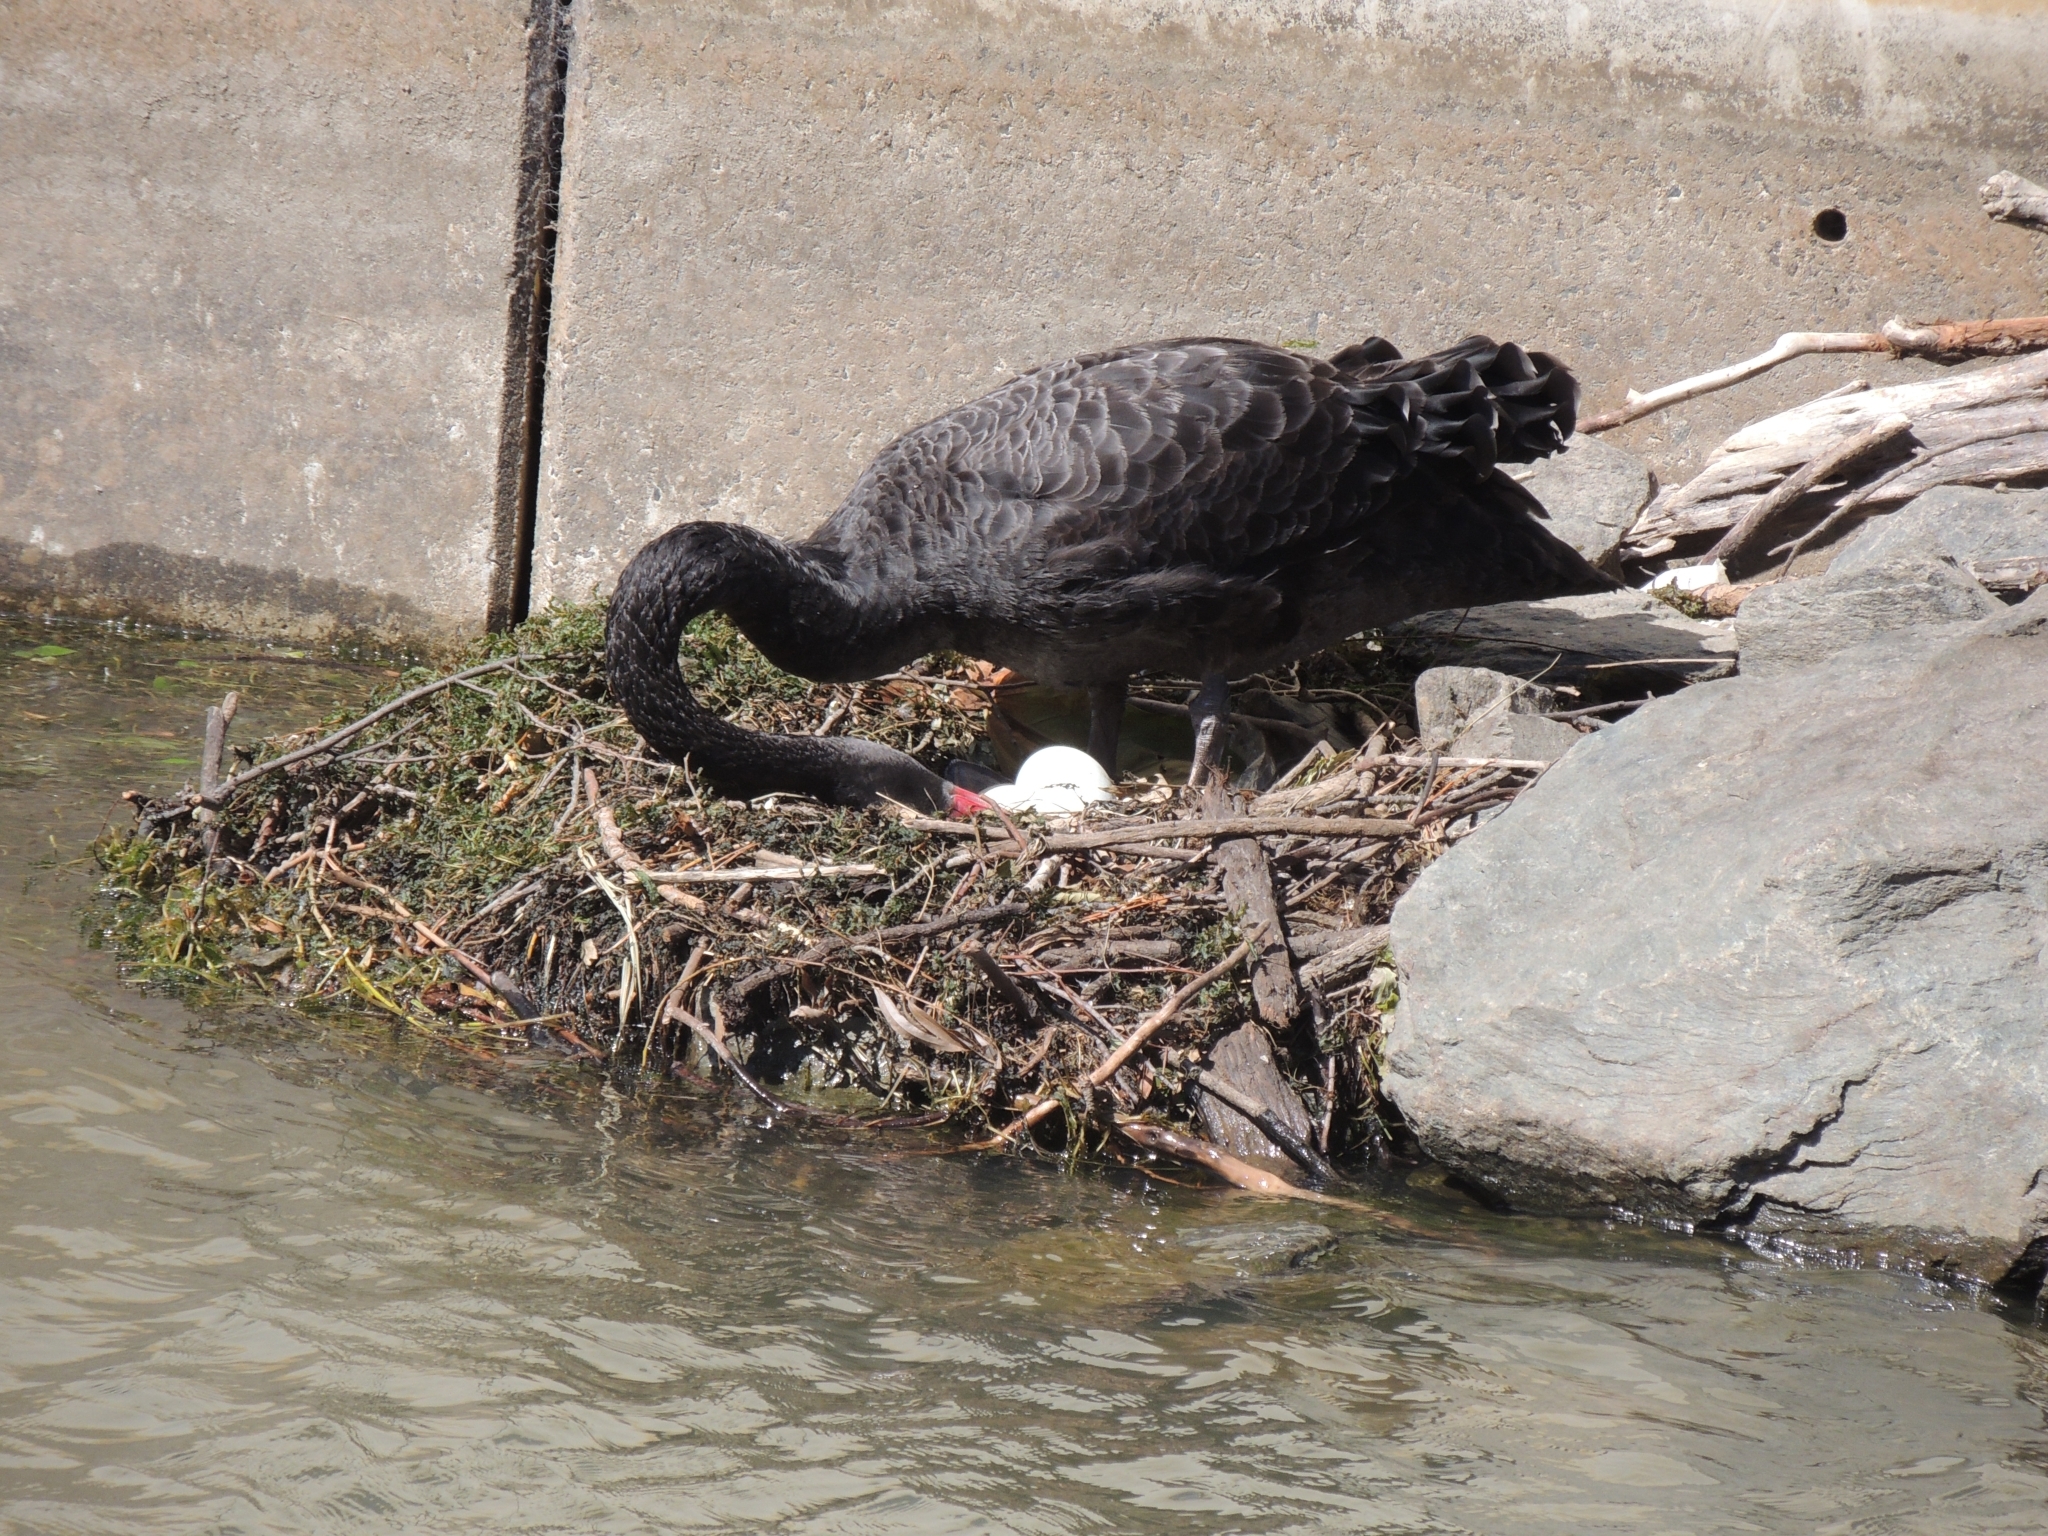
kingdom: Animalia
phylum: Chordata
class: Aves
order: Anseriformes
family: Anatidae
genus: Cygnus
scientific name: Cygnus atratus
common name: Black swan
